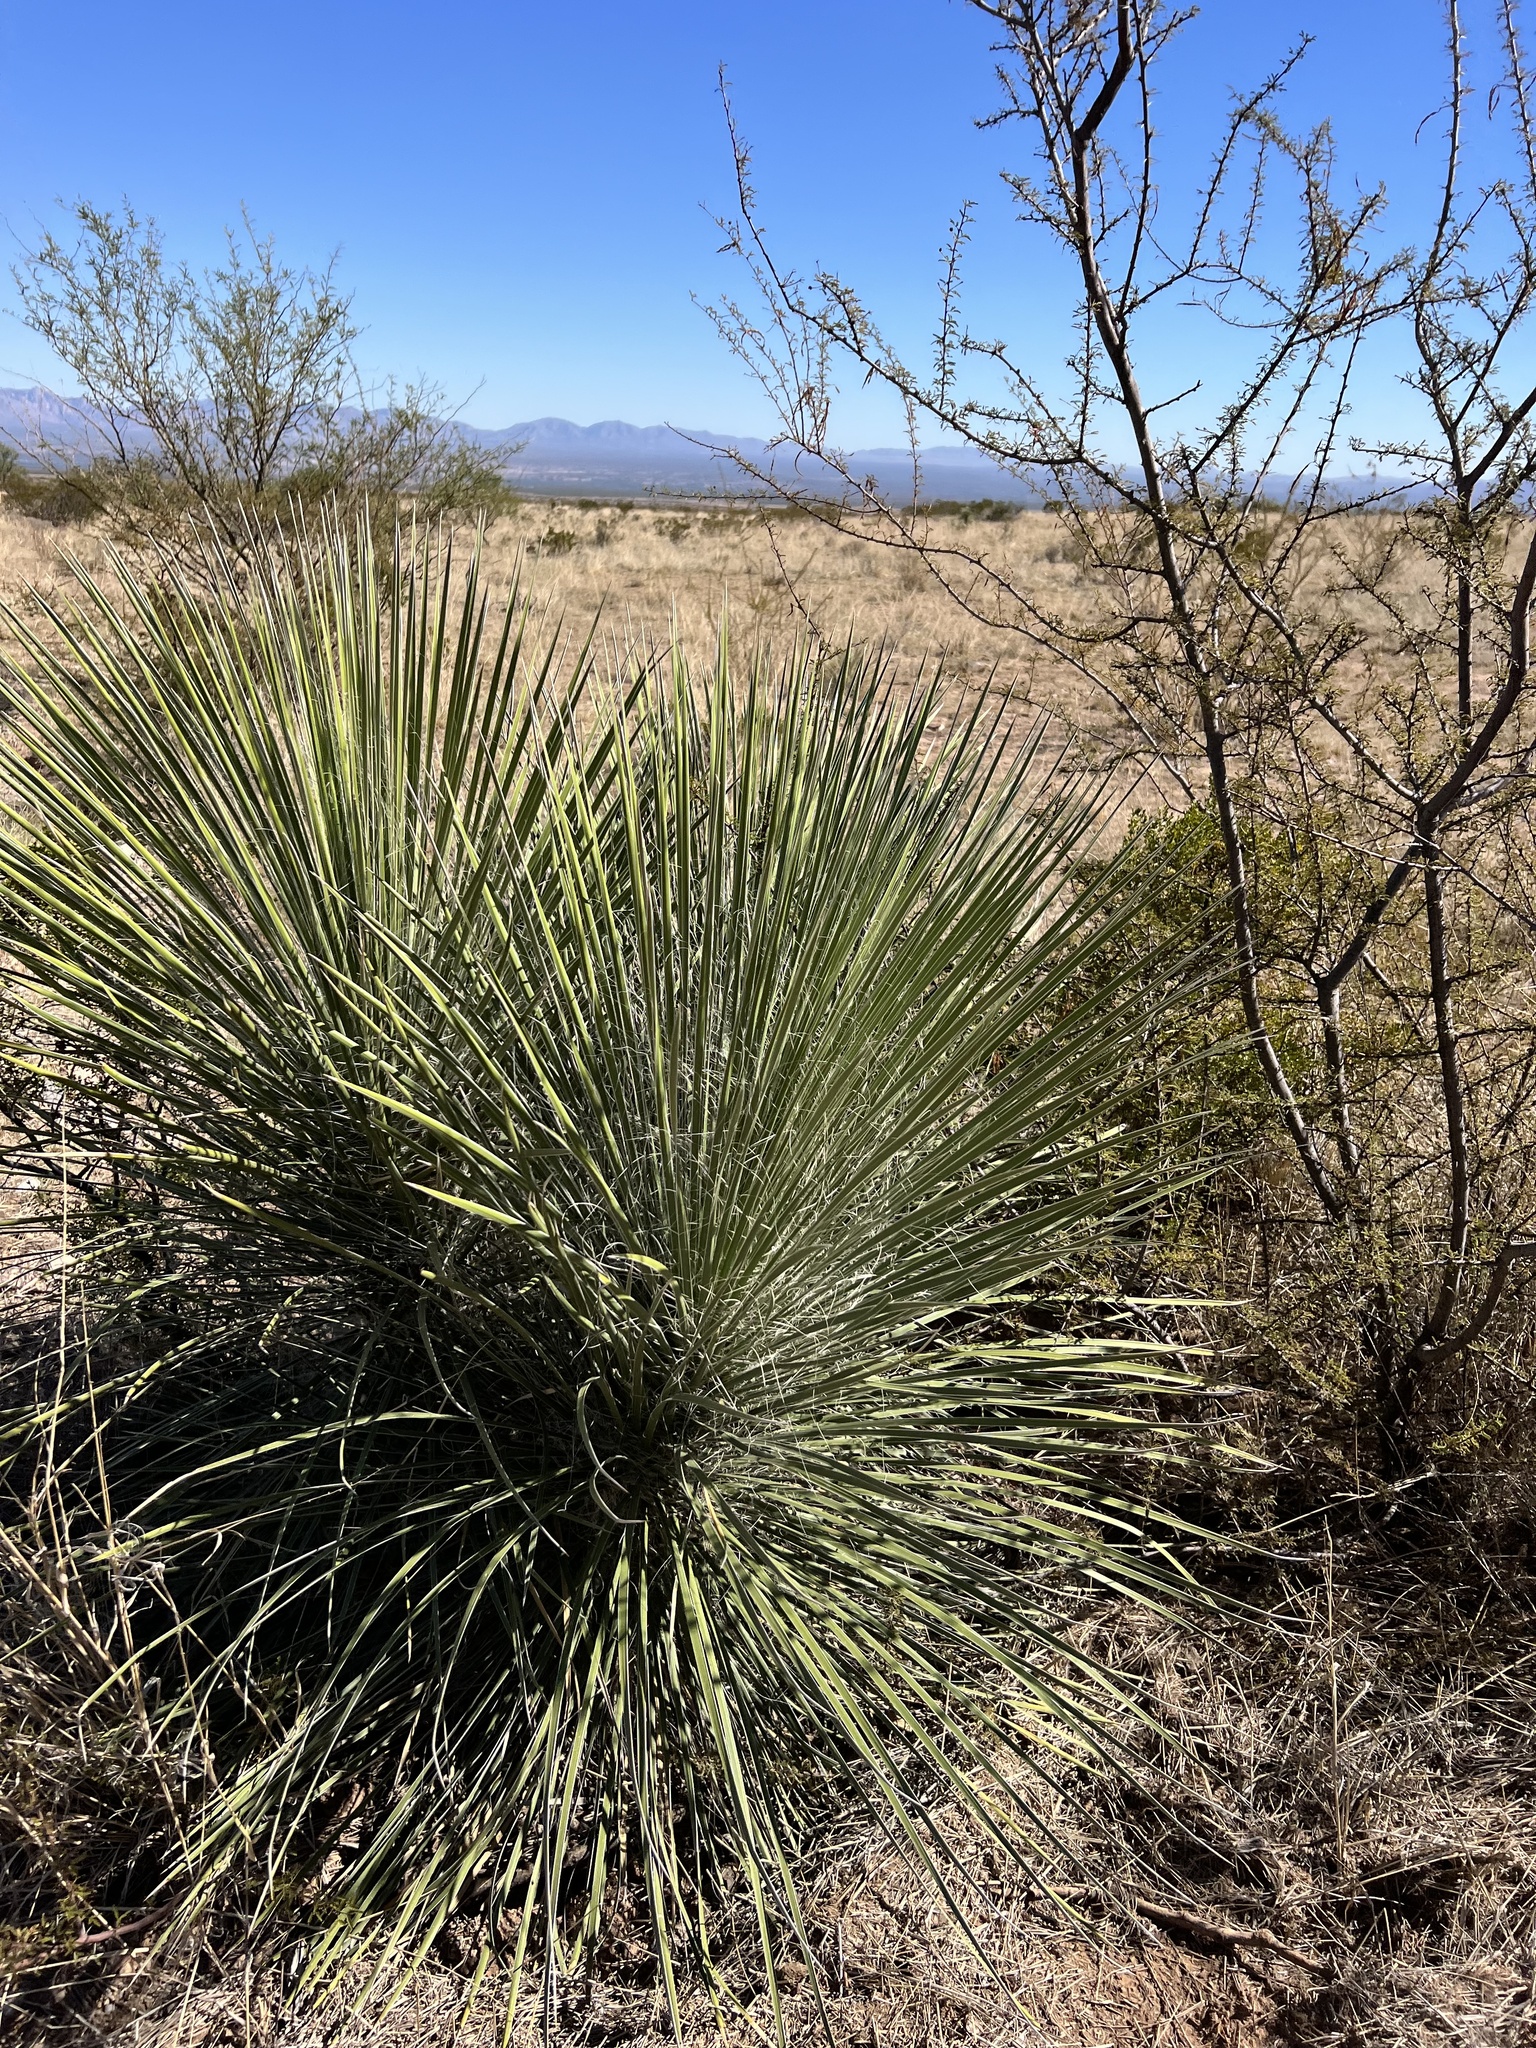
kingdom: Plantae
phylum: Tracheophyta
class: Liliopsida
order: Asparagales
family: Asparagaceae
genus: Yucca
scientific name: Yucca elata
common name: Palmella
